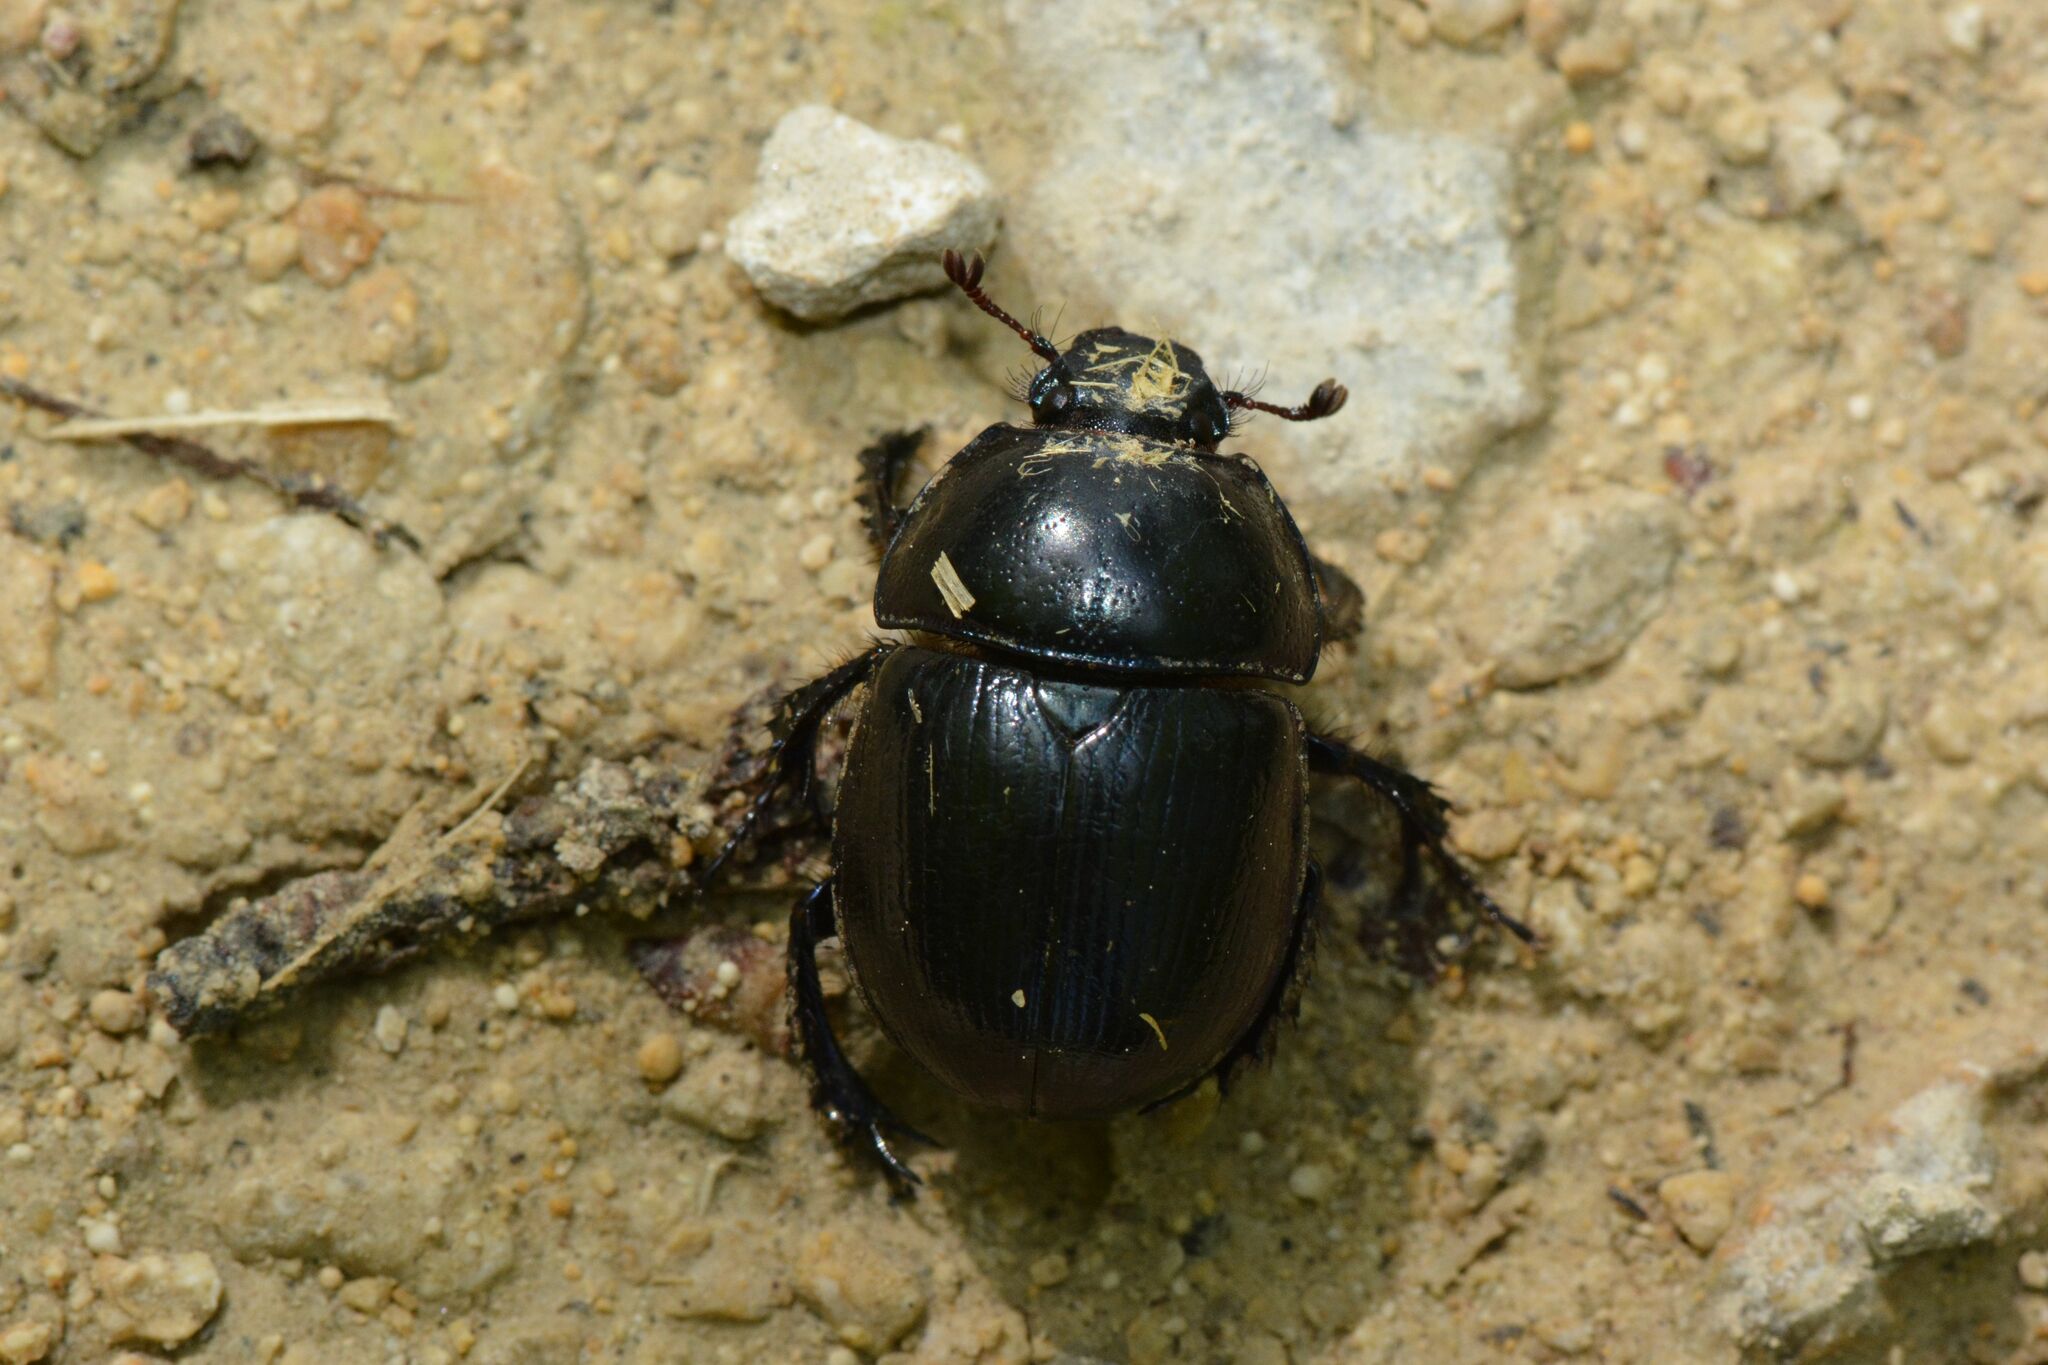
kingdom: Animalia
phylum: Arthropoda
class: Insecta
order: Coleoptera
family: Geotrupidae
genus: Anoplotrupes
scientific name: Anoplotrupes stercorosus
